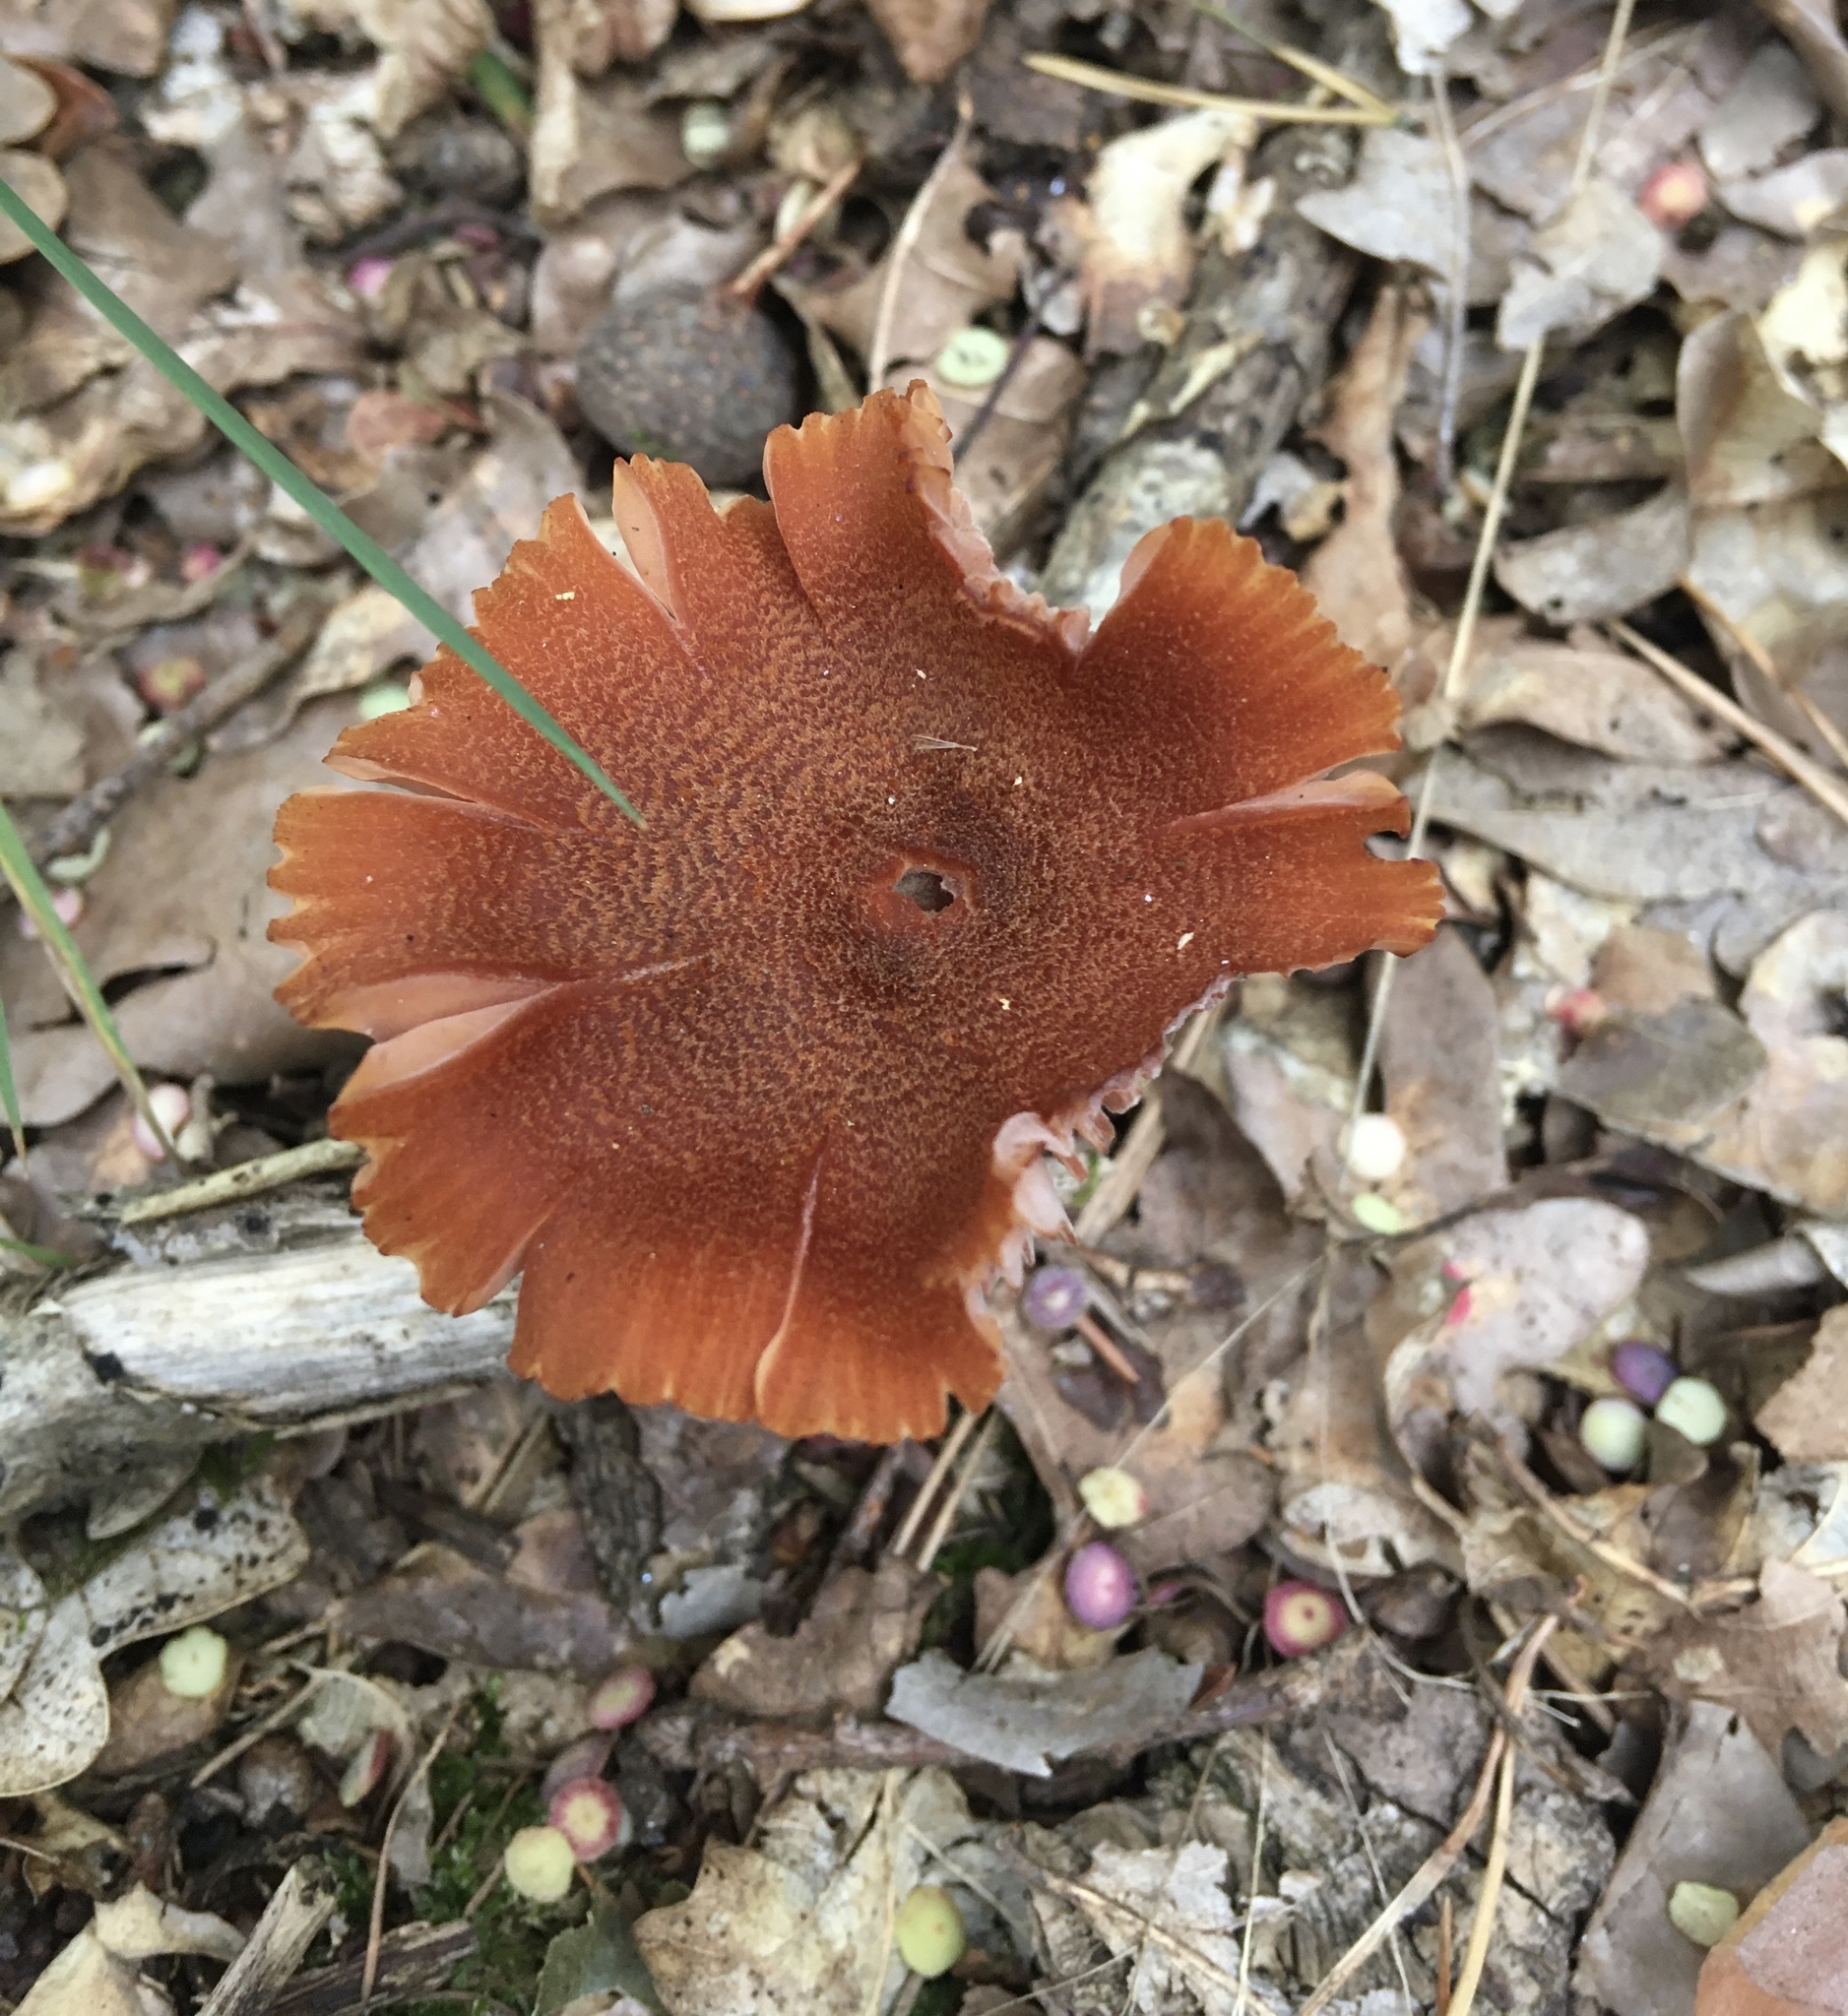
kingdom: Fungi
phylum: Basidiomycota
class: Agaricomycetes
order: Agaricales
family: Hydnangiaceae
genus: Laccaria
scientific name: Laccaria proxima
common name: Scurfy deceiver
